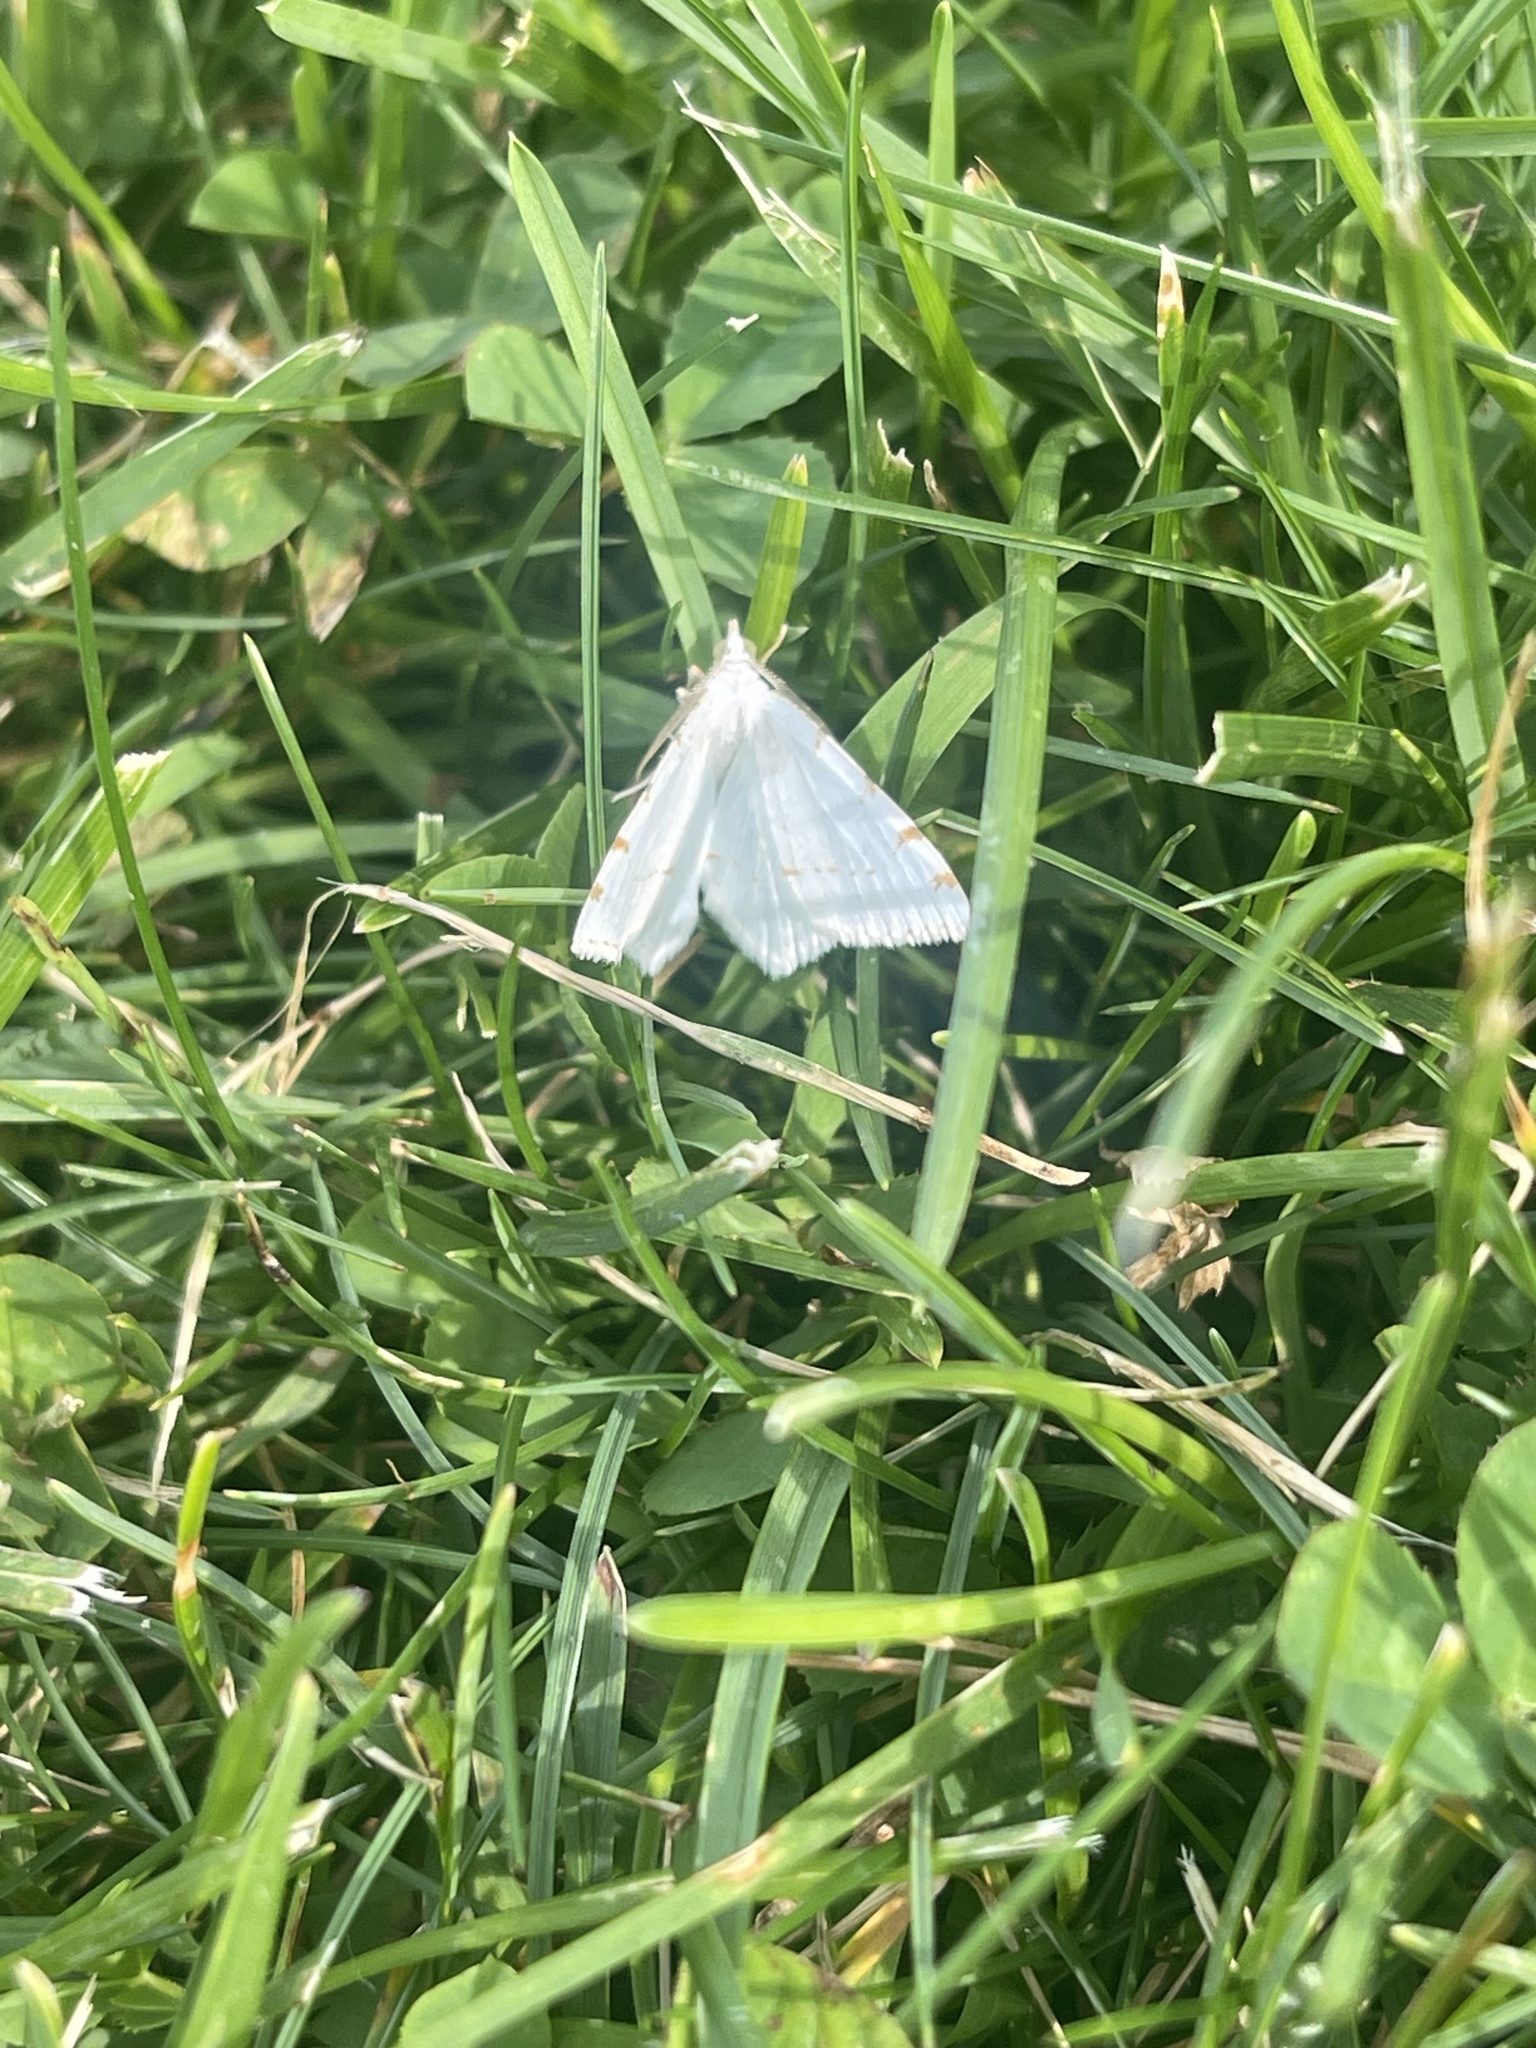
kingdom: Animalia
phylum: Arthropoda
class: Insecta
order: Lepidoptera
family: Geometridae
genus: Macaria
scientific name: Macaria pustularia
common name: Lesser maple spanworm moth
